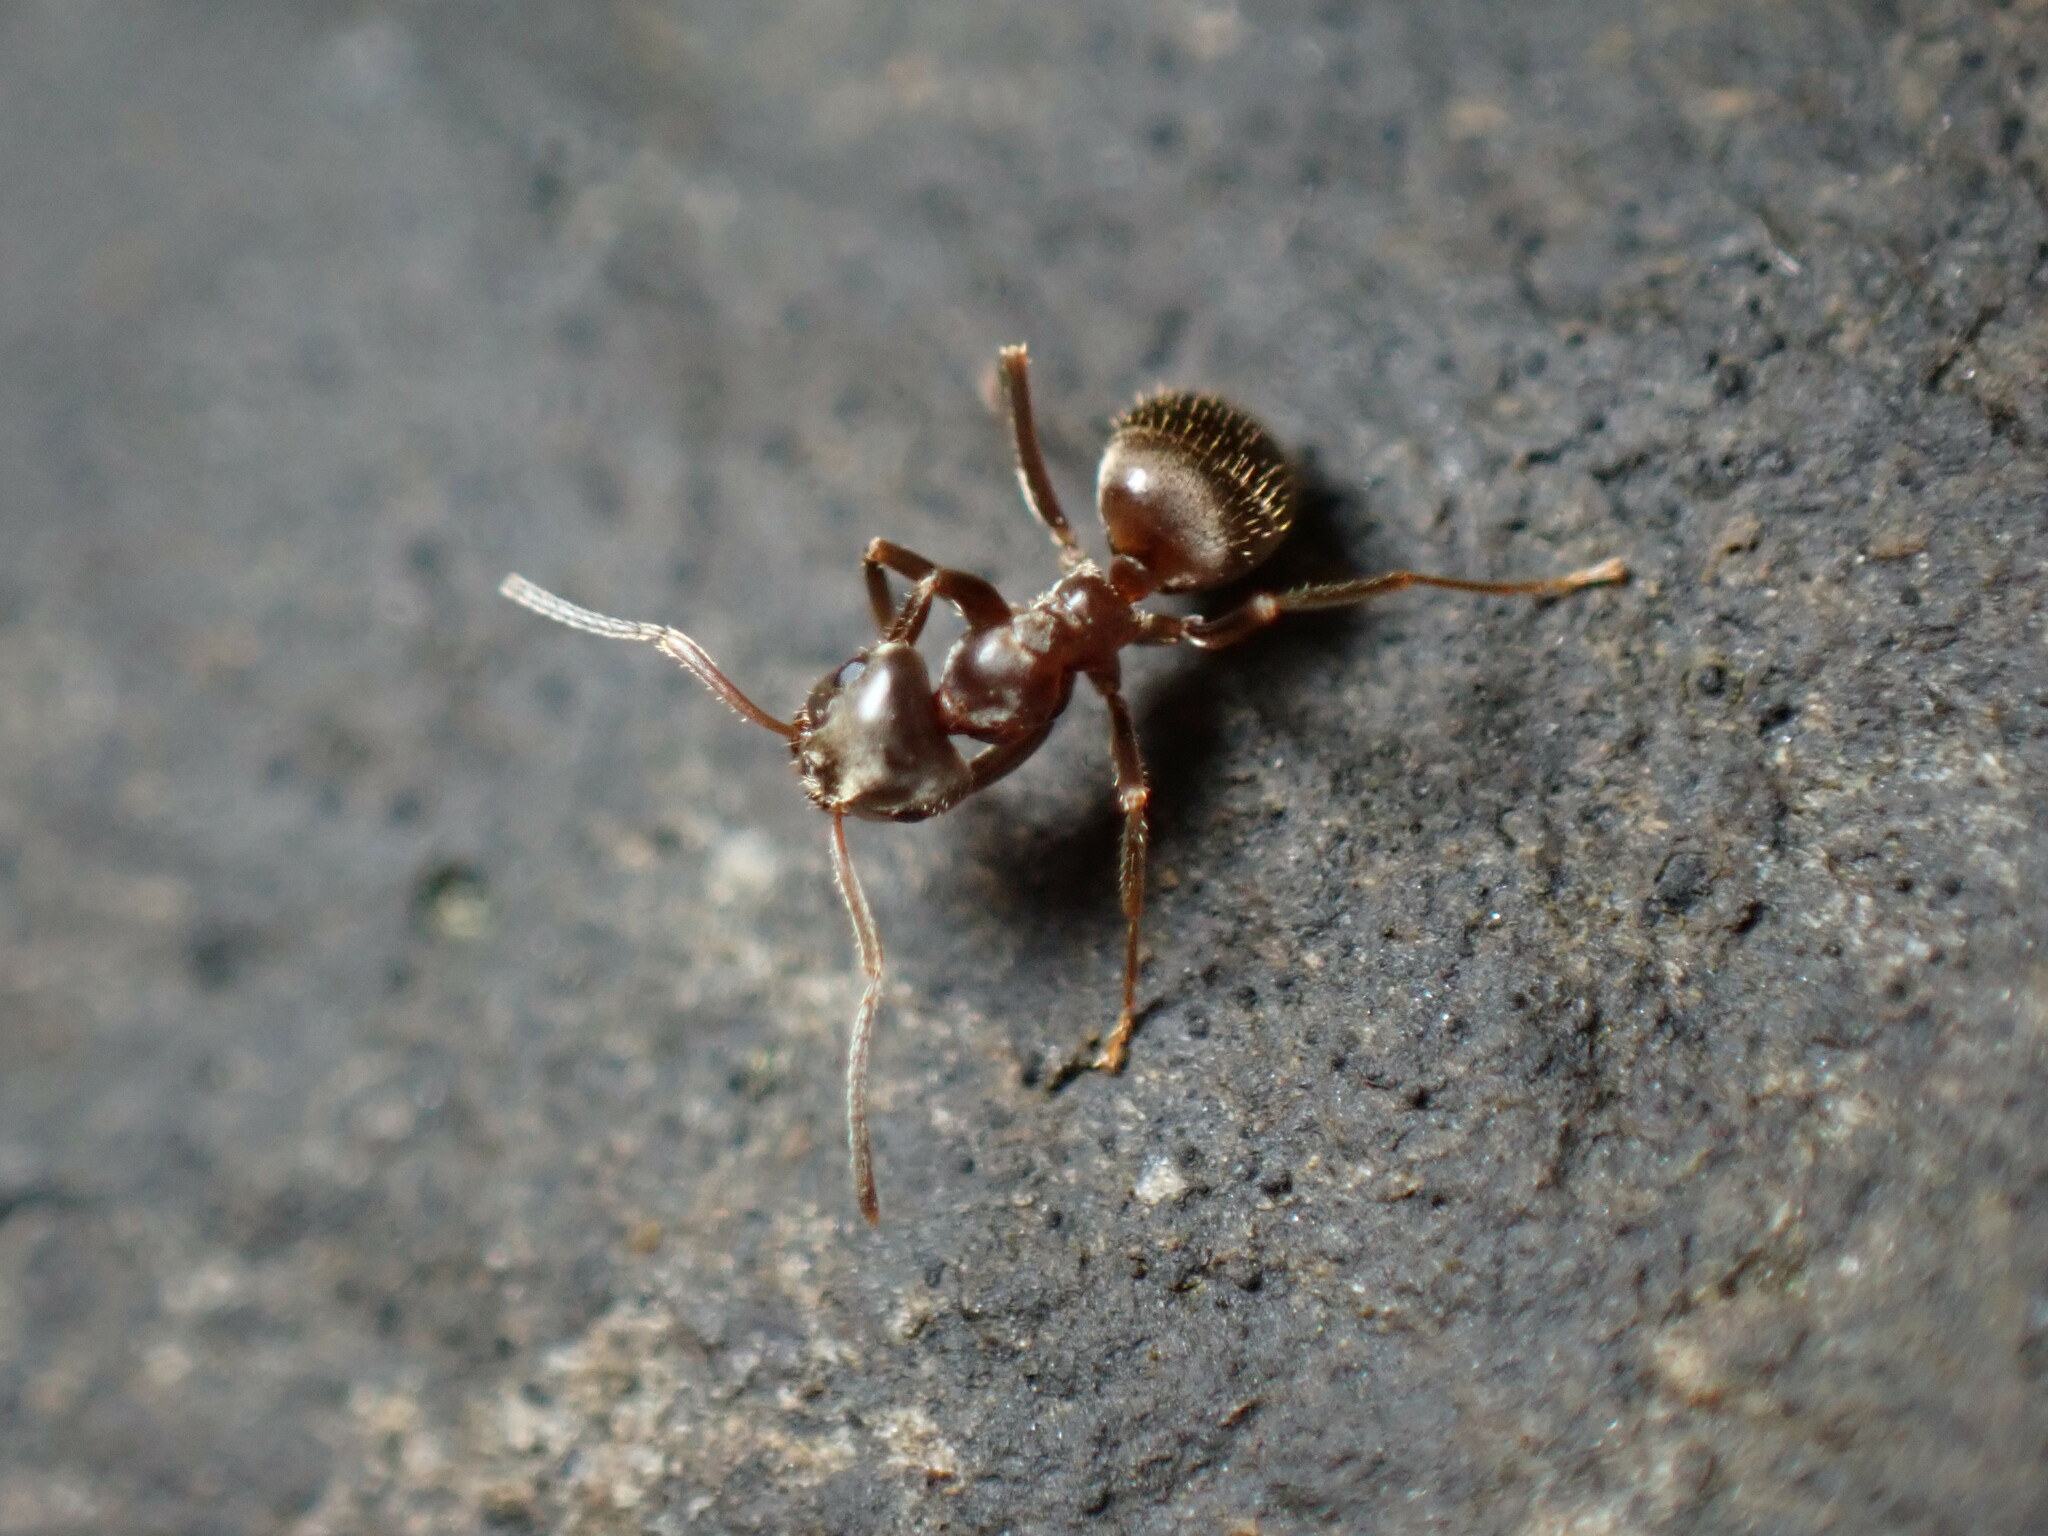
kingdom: Animalia
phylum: Arthropoda
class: Insecta
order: Hymenoptera
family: Formicidae
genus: Lasius
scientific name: Lasius niger
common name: Small black ant
